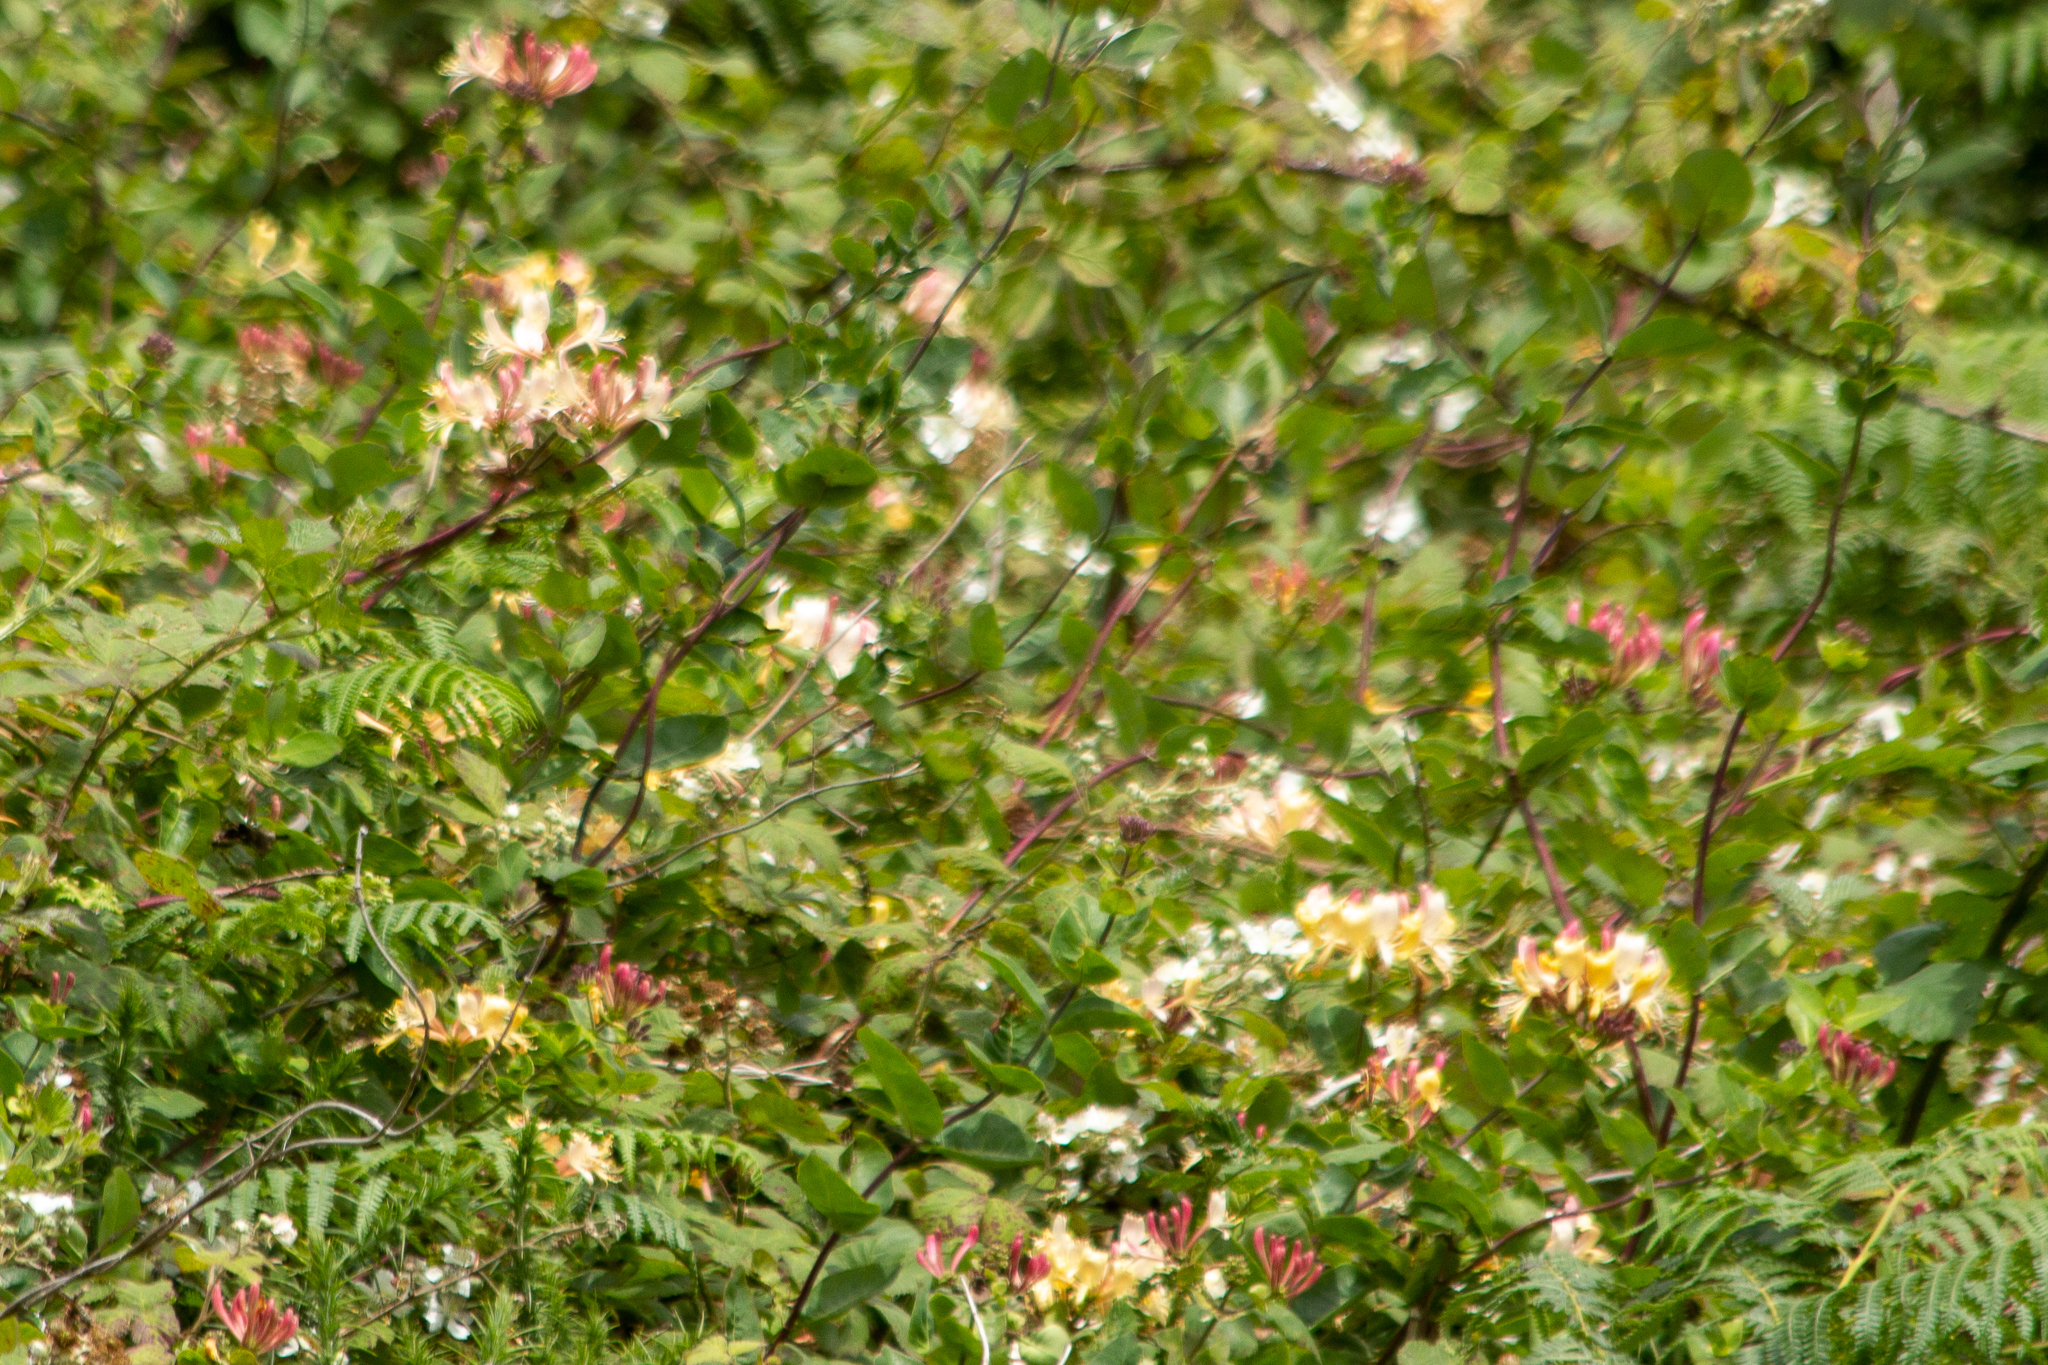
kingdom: Plantae
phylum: Tracheophyta
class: Magnoliopsida
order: Dipsacales
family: Caprifoliaceae
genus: Lonicera
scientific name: Lonicera periclymenum
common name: European honeysuckle
